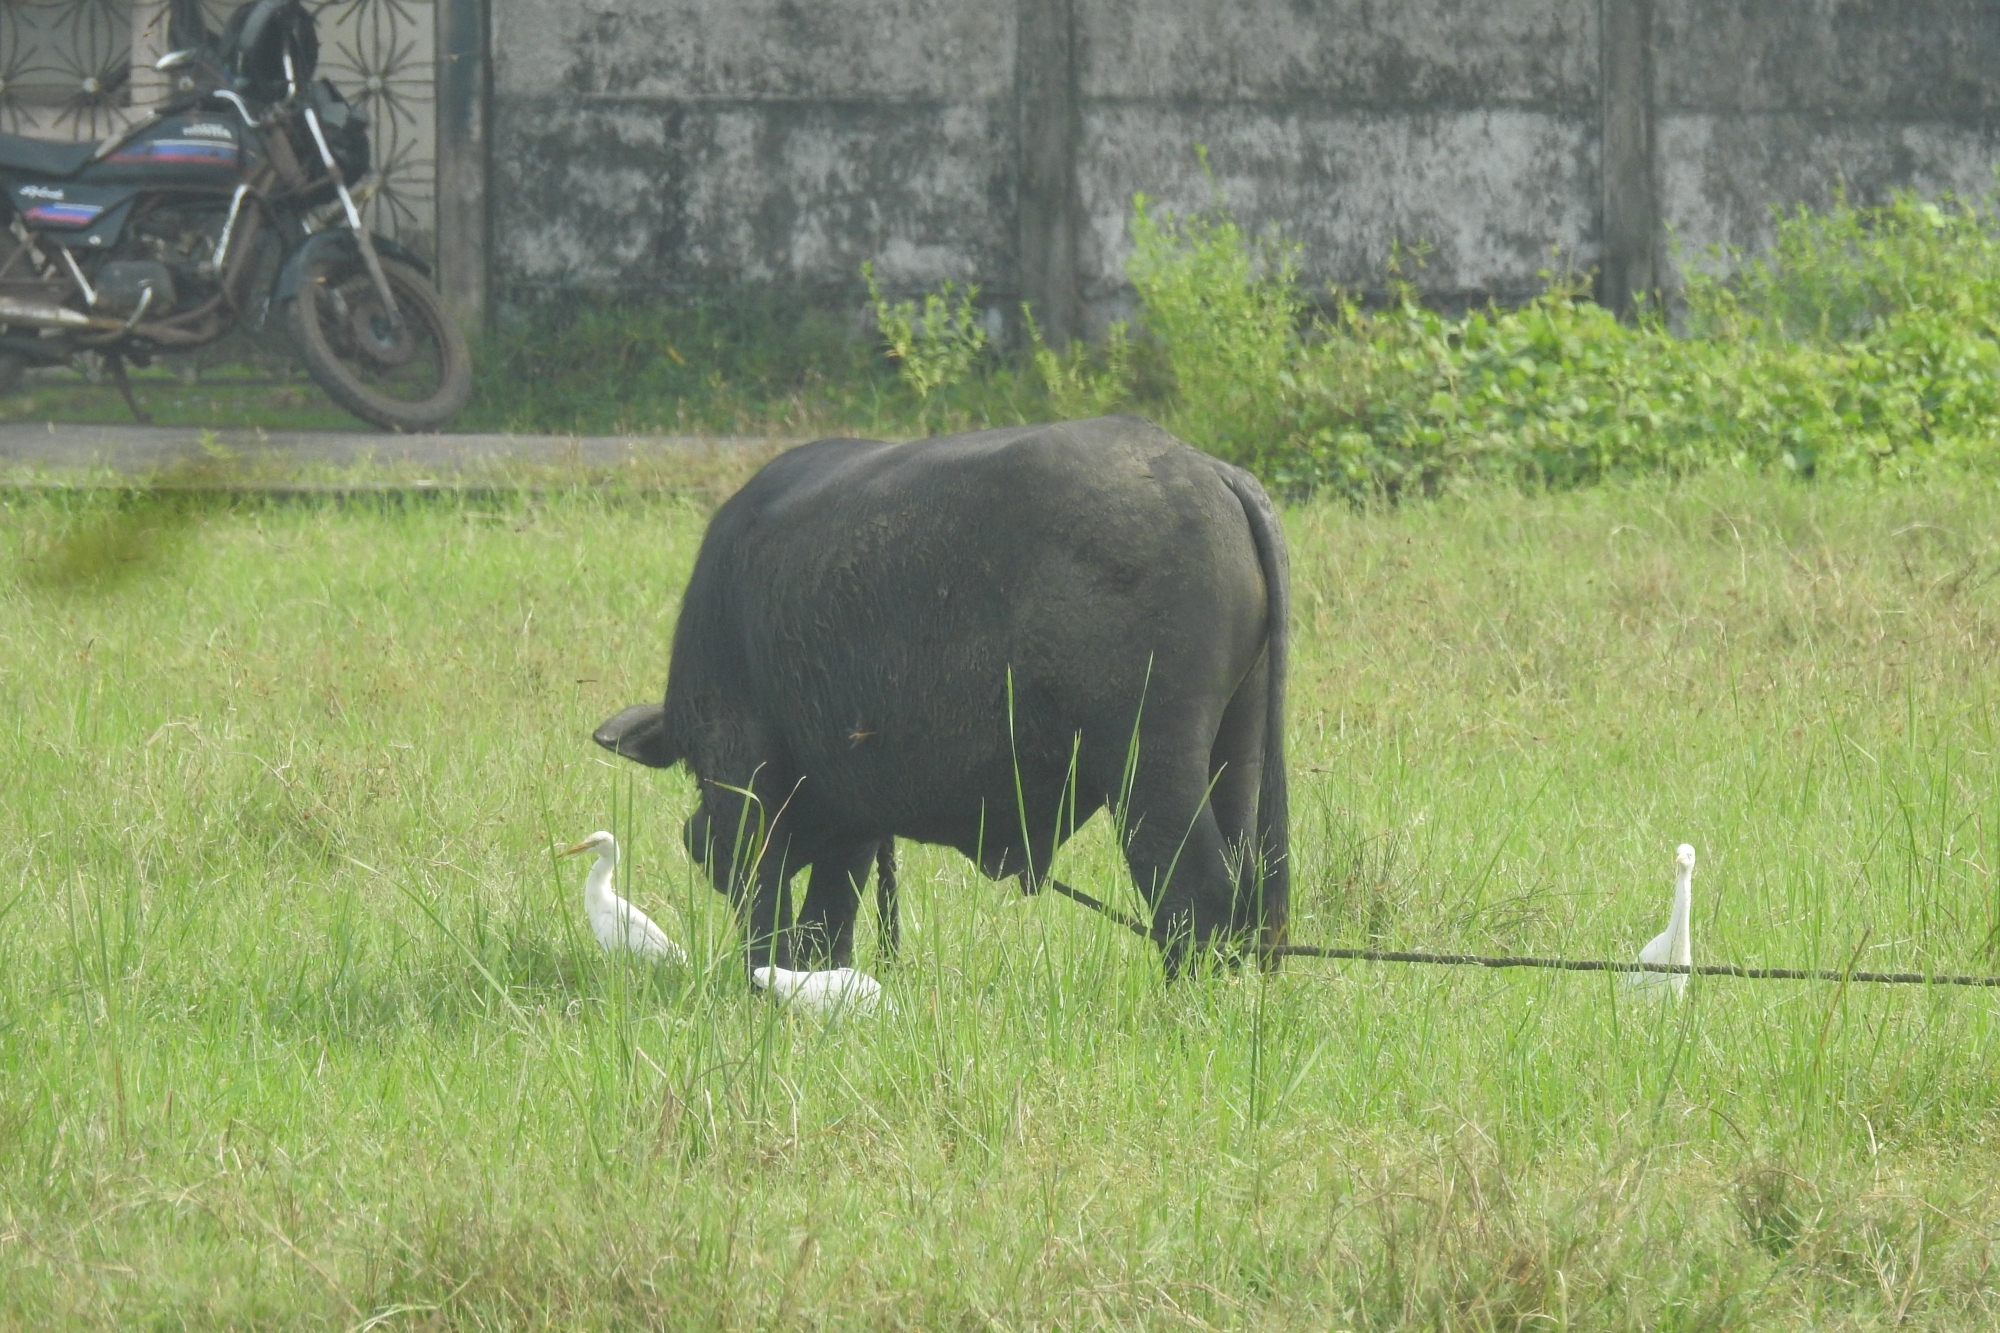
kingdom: Animalia
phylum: Chordata
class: Mammalia
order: Artiodactyla
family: Bovidae
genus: Bubalus
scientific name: Bubalus bubalis
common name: Water buffalo
